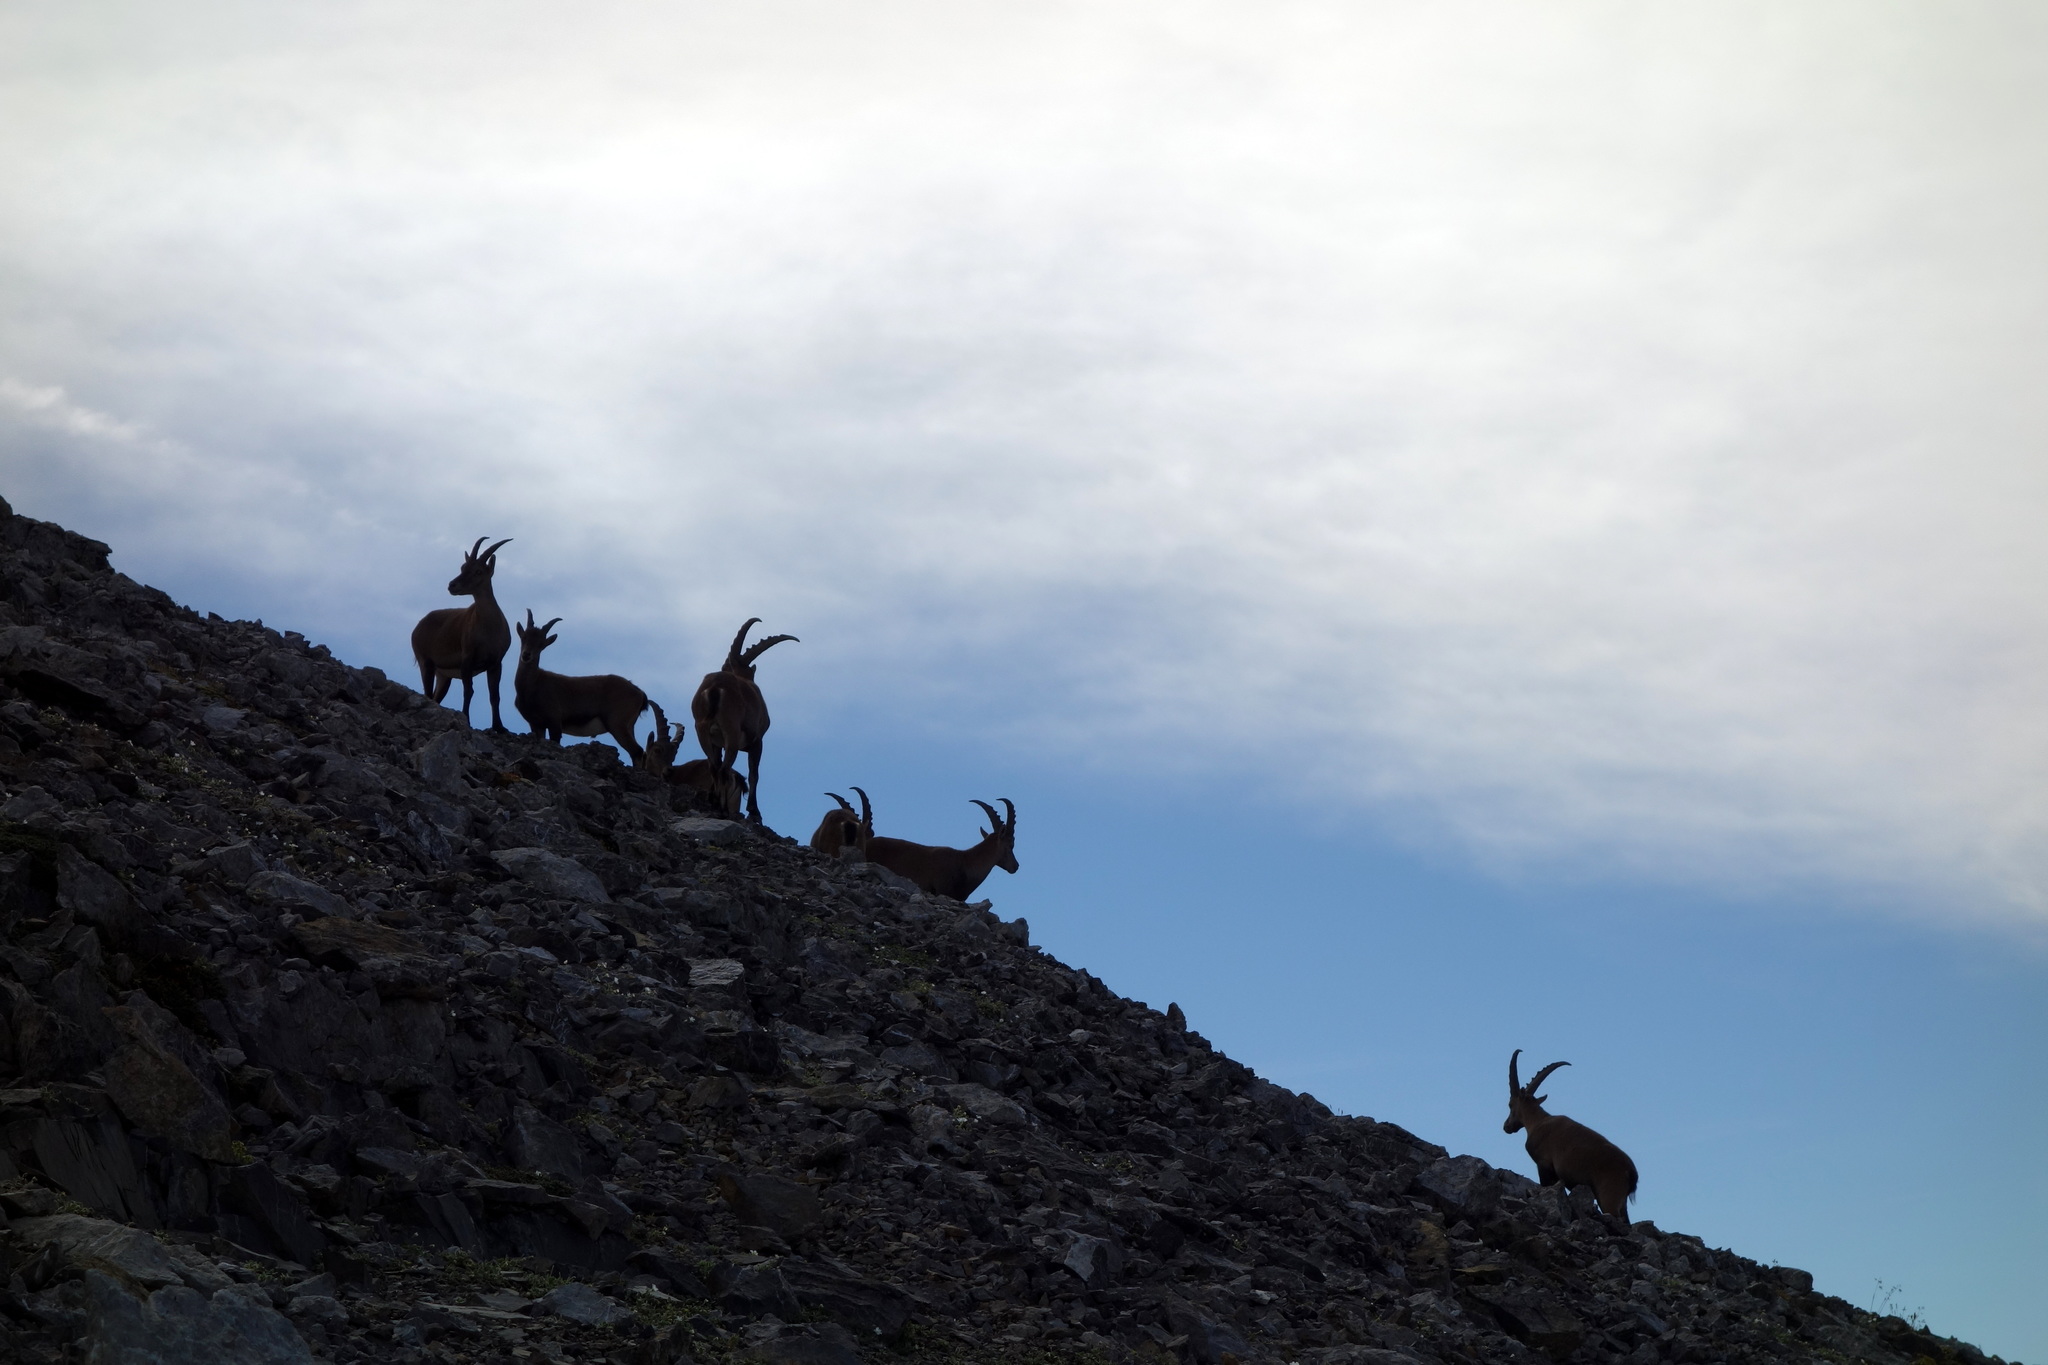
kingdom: Animalia
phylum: Chordata
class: Mammalia
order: Artiodactyla
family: Bovidae
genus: Capra
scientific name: Capra ibex
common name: Alpine ibex
